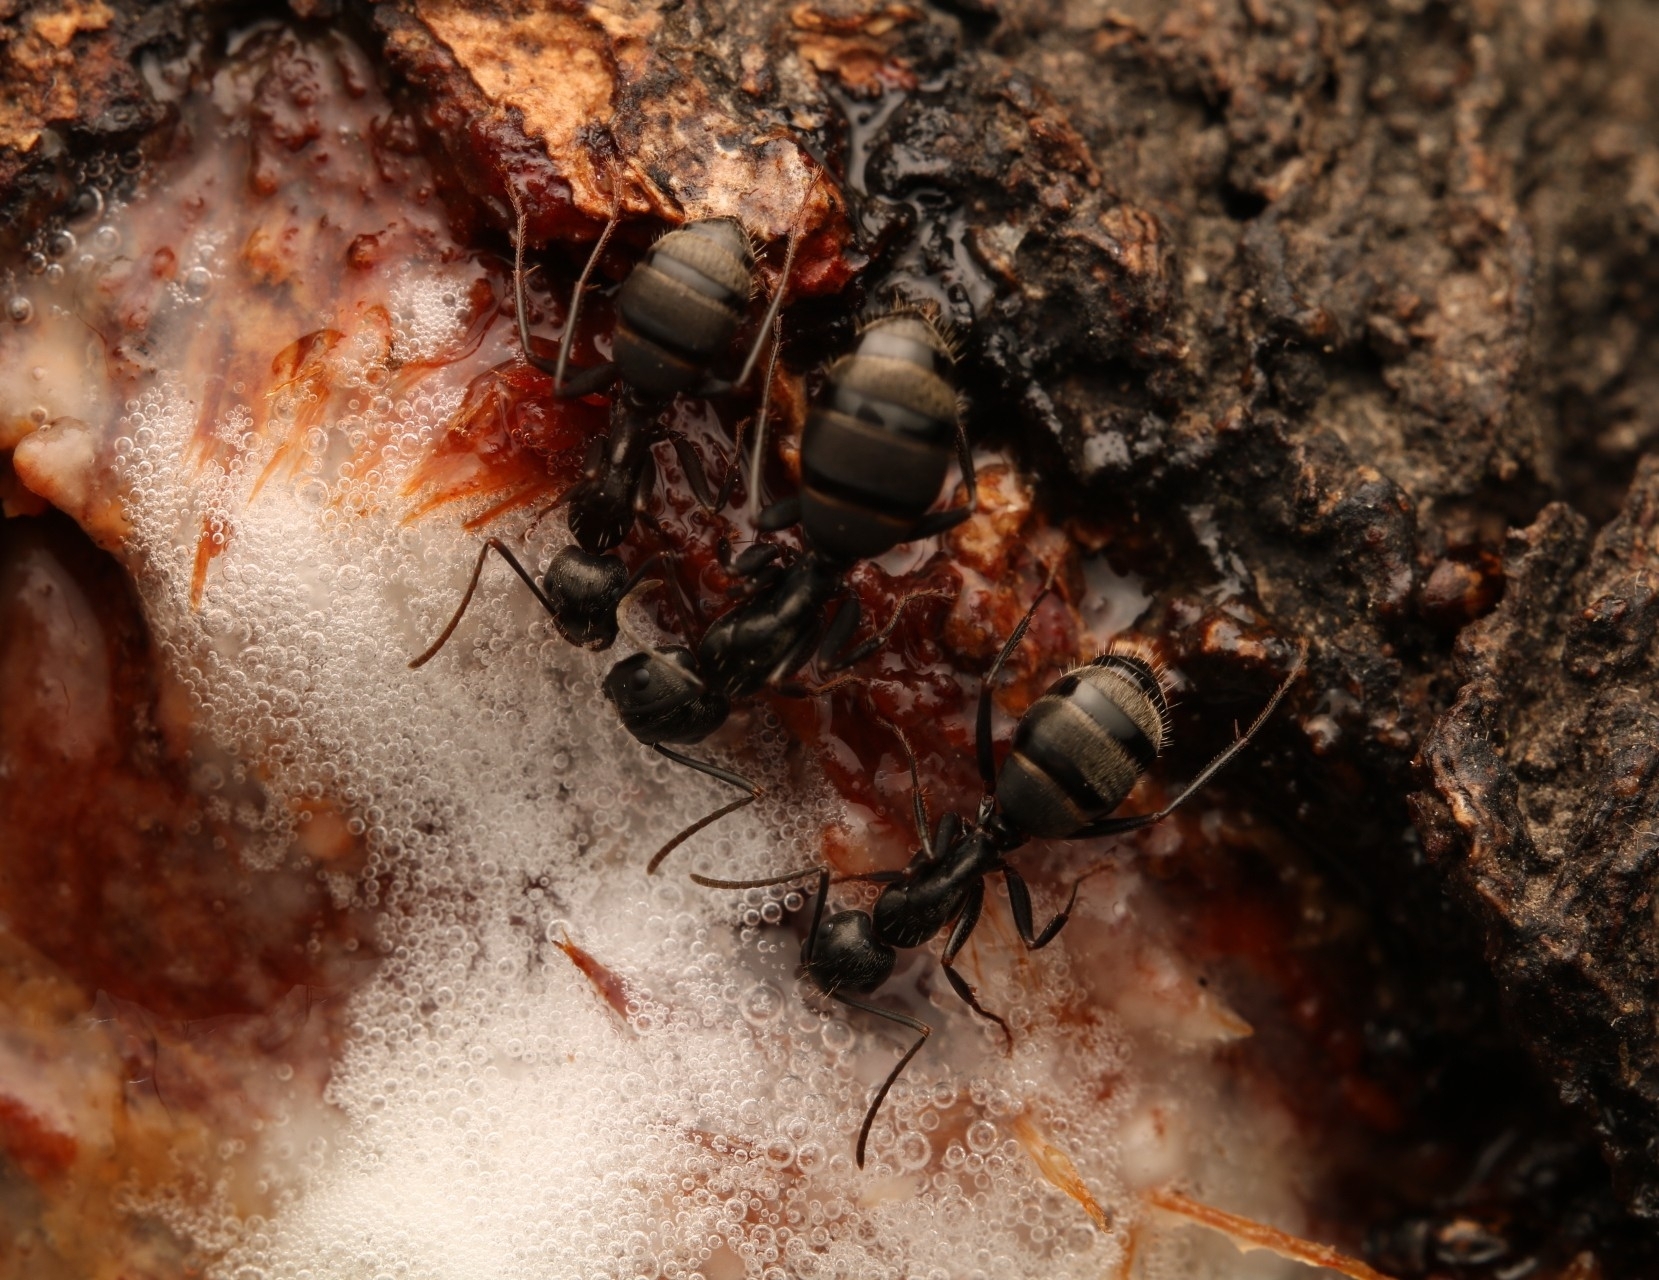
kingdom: Animalia
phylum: Arthropoda
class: Insecta
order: Hymenoptera
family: Formicidae
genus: Camponotus
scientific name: Camponotus pennsylvanicus
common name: Black carpenter ant
